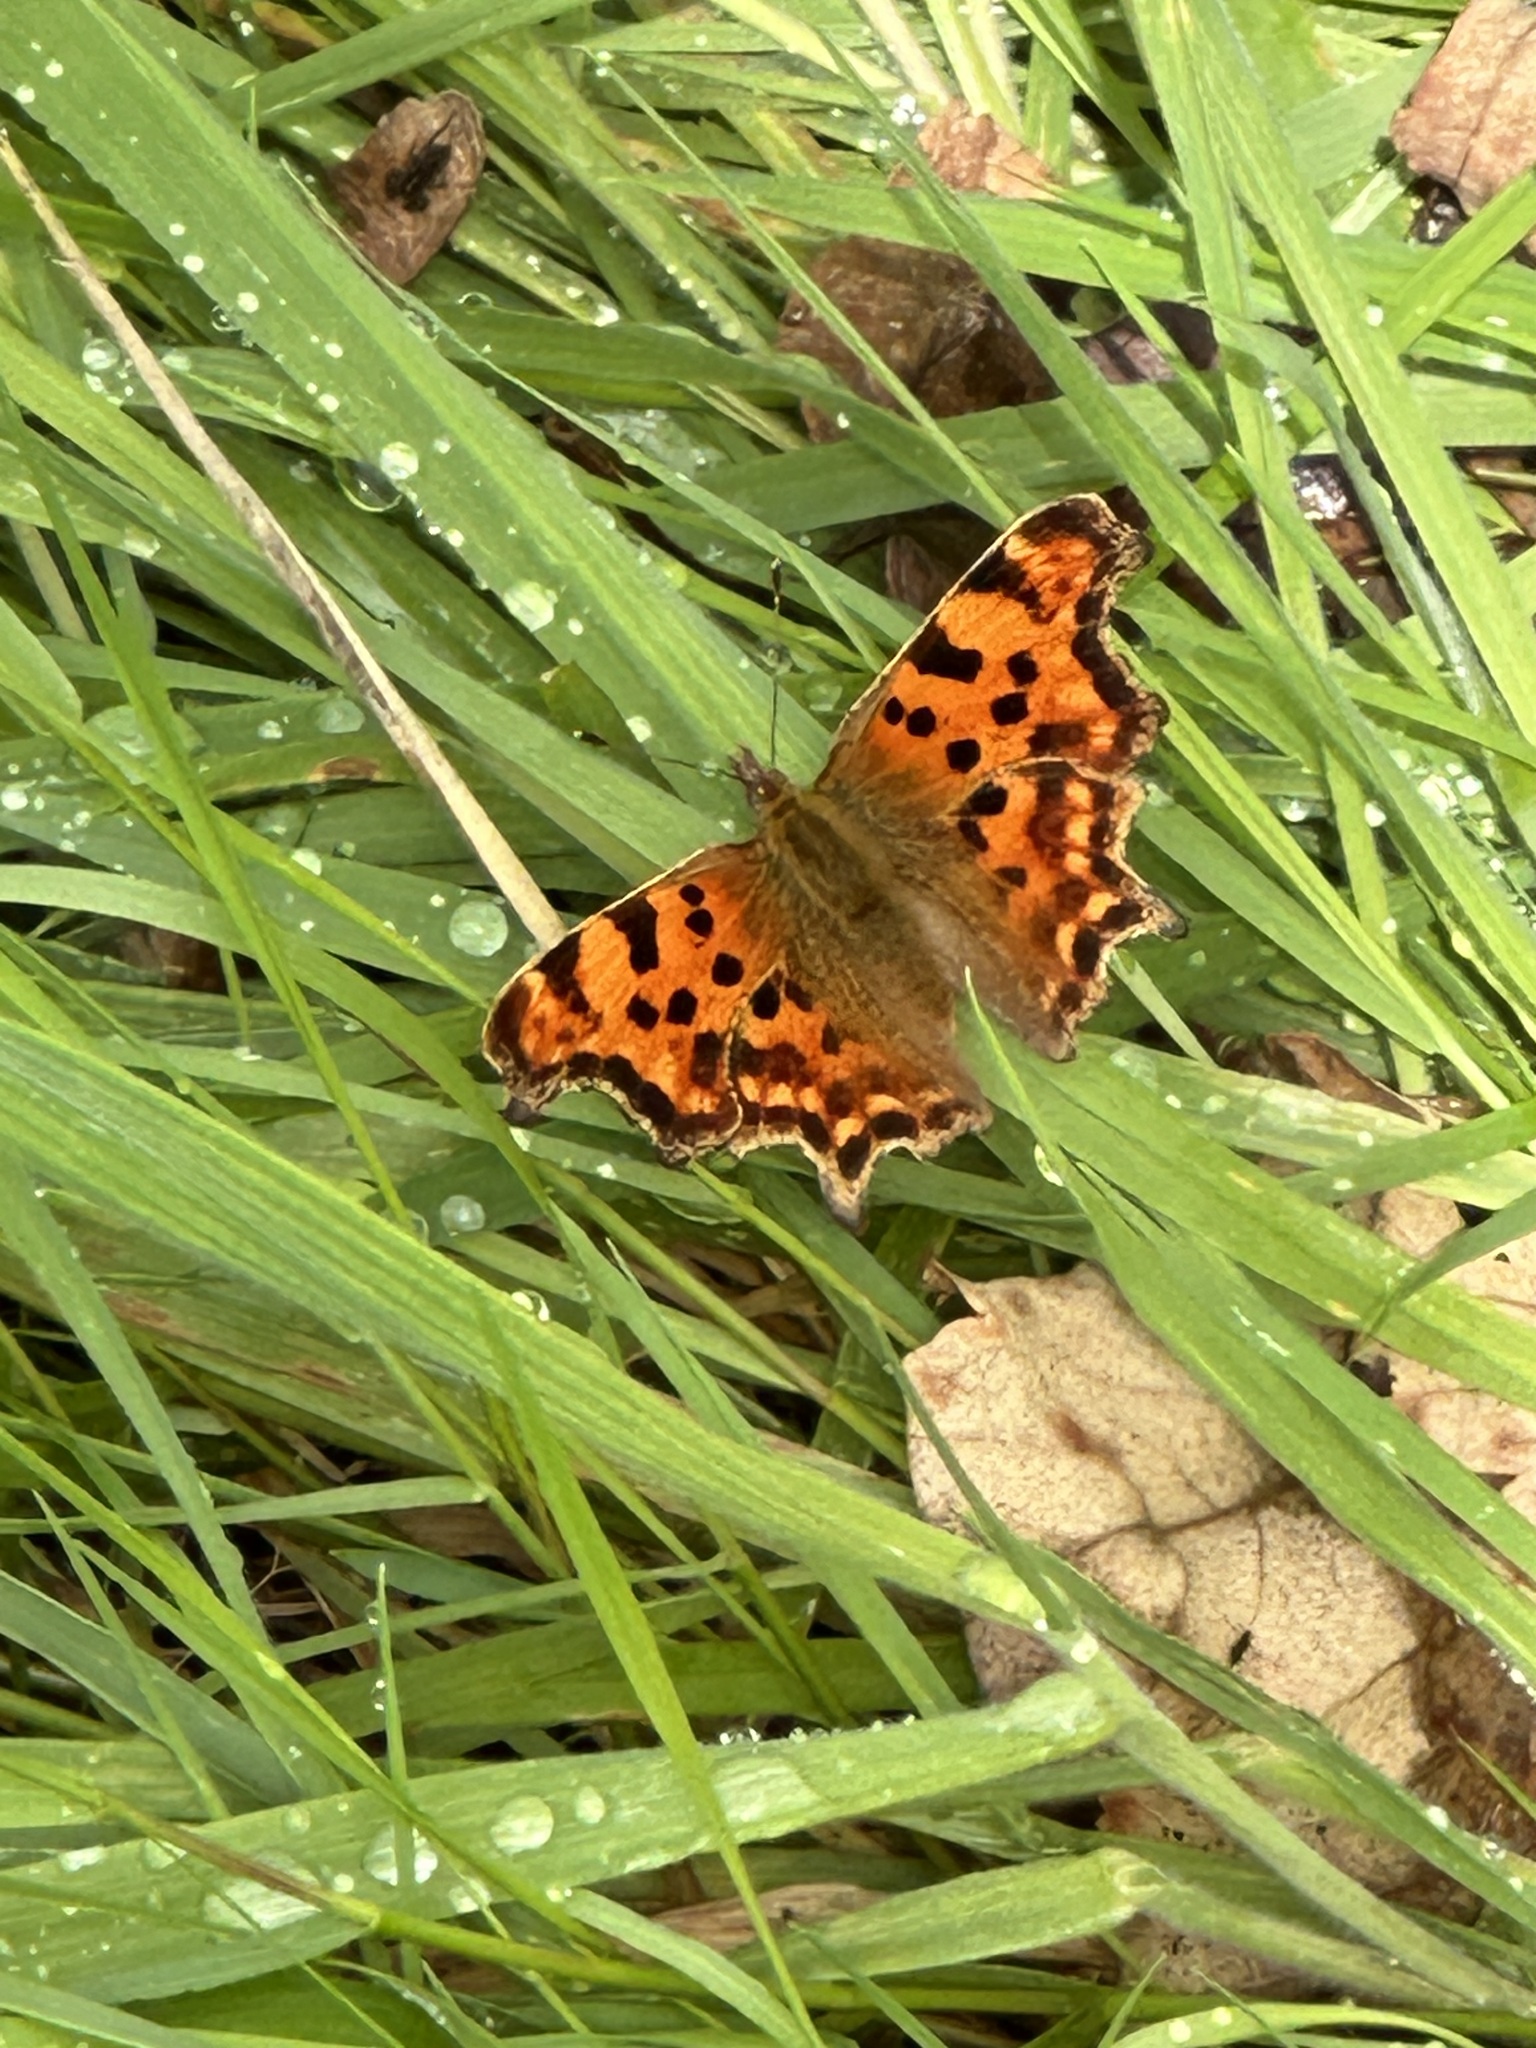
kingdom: Animalia
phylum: Arthropoda
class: Insecta
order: Lepidoptera
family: Nymphalidae
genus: Polygonia
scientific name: Polygonia c-album
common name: Comma
